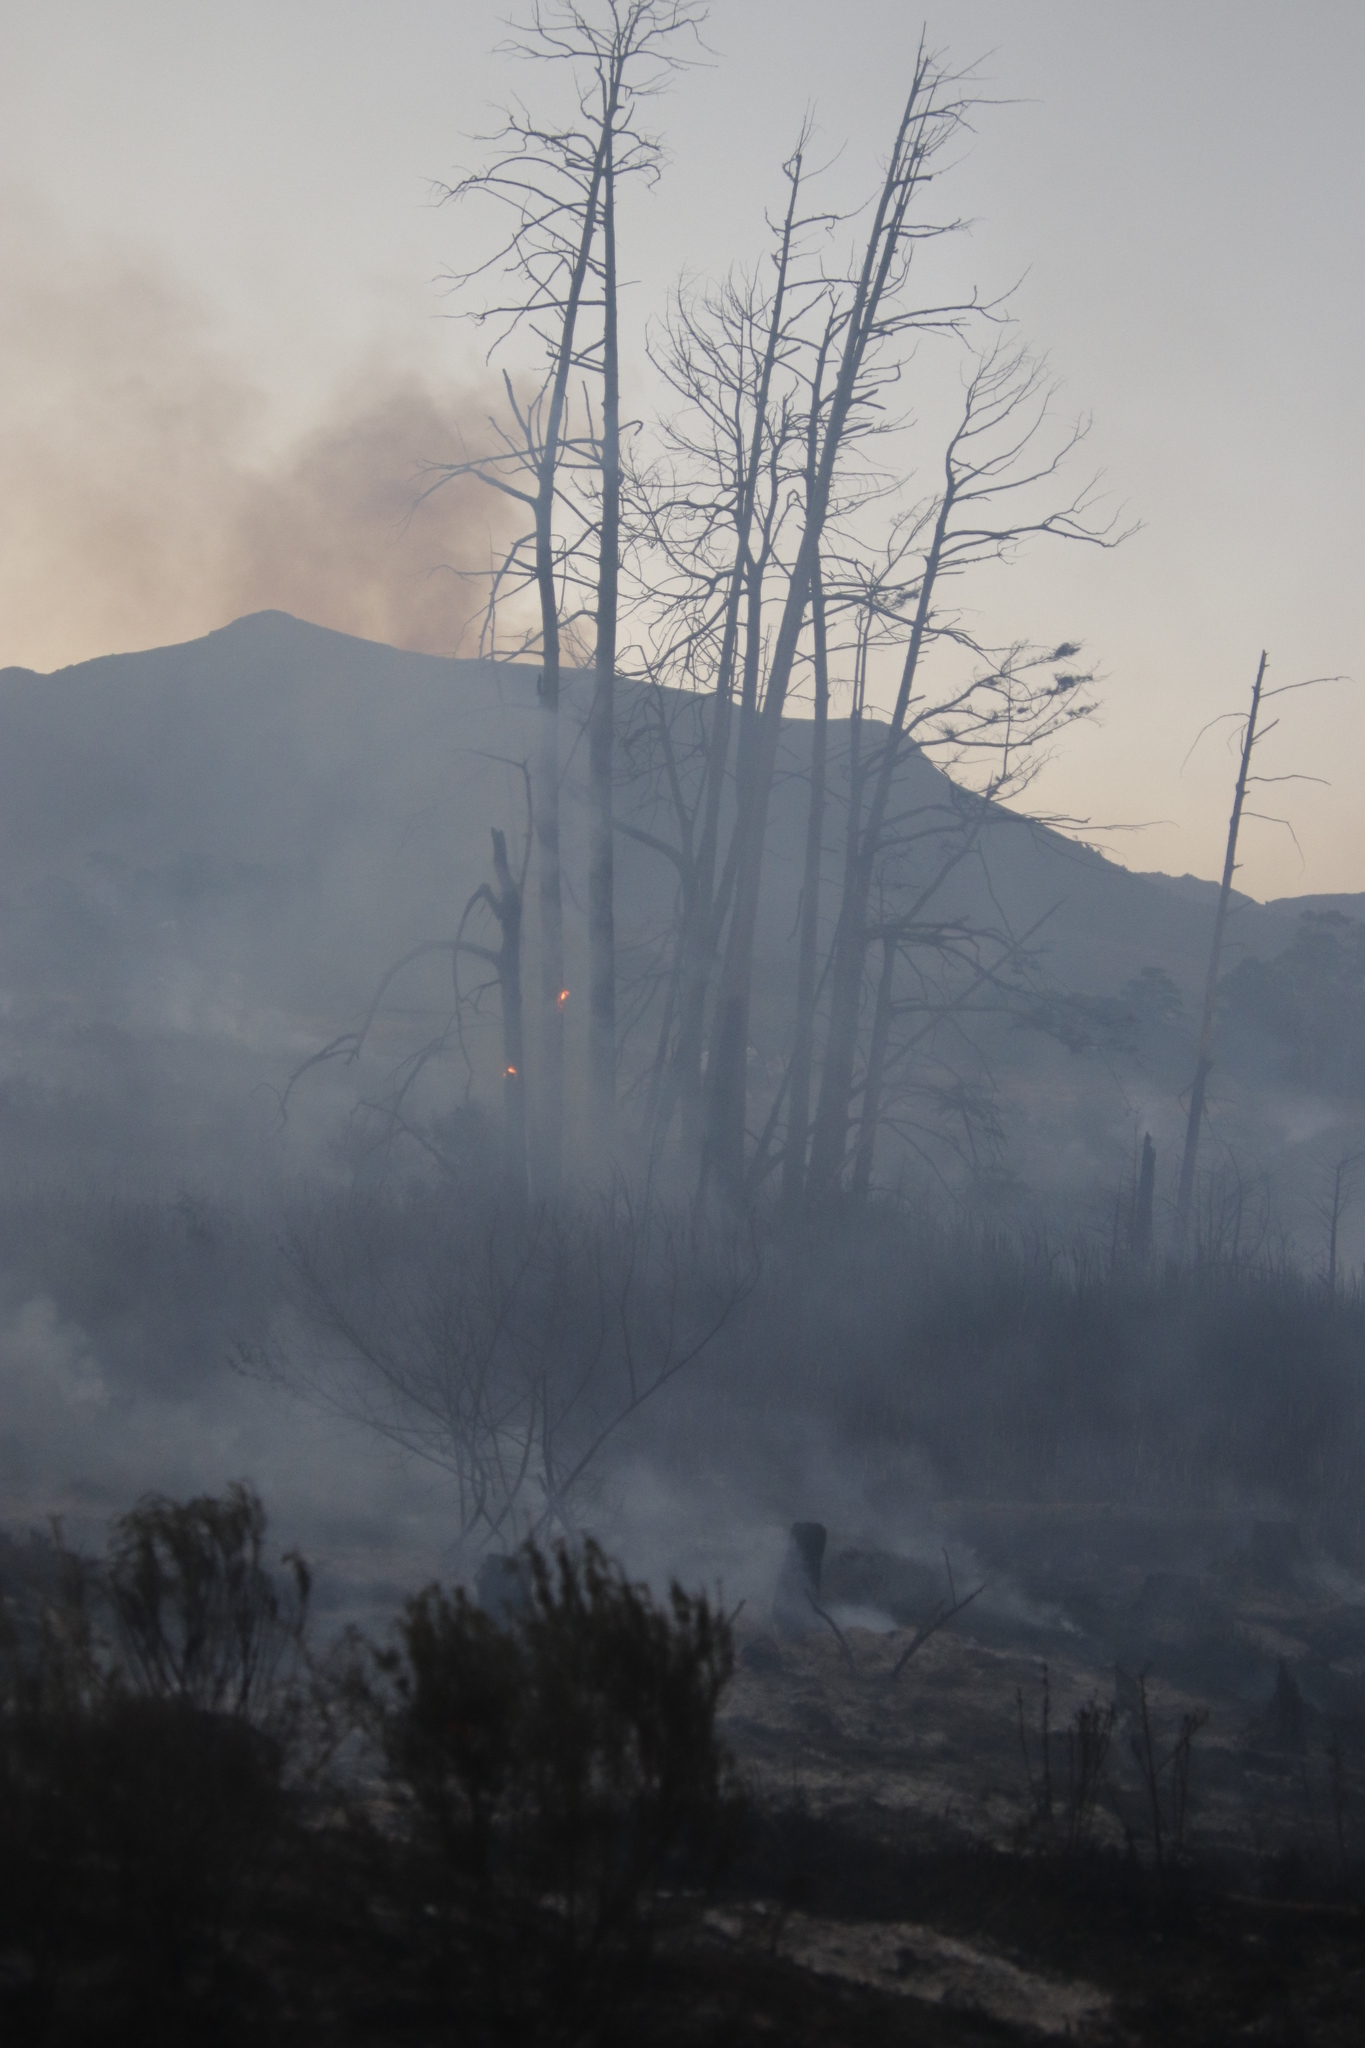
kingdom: Plantae
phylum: Tracheophyta
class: Pinopsida
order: Pinales
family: Cupressaceae
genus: Taxodium
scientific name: Taxodium distichum
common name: Bald cypress
